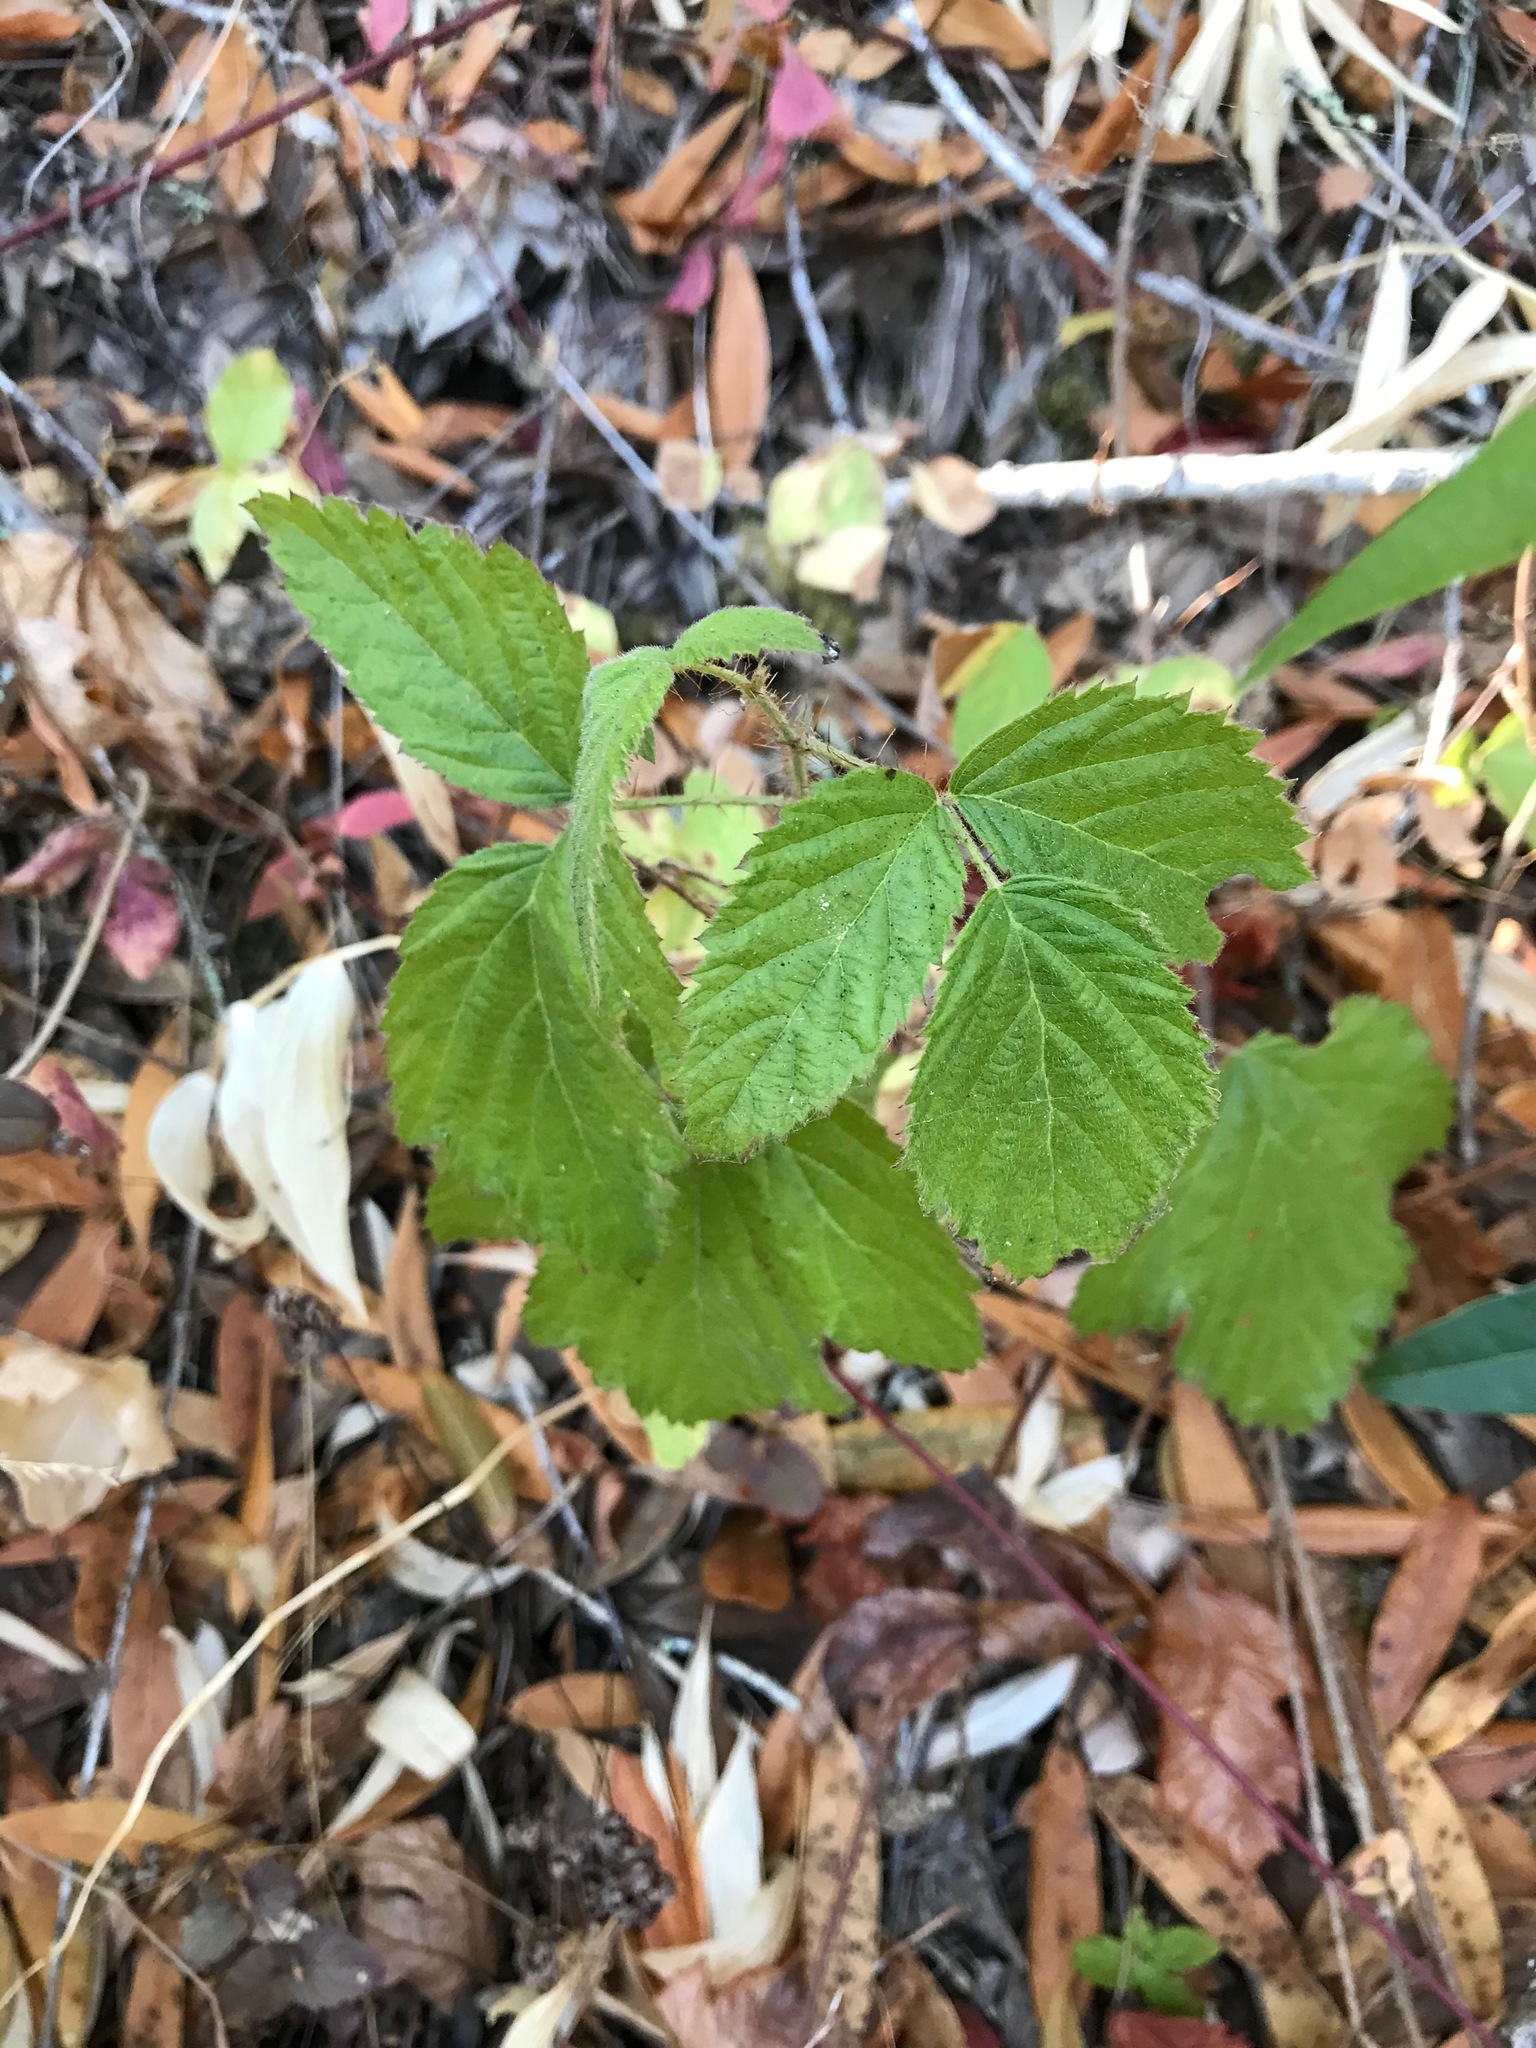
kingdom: Plantae
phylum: Tracheophyta
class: Magnoliopsida
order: Rosales
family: Rosaceae
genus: Rubus
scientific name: Rubus ursinus
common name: Pacific blackberry
